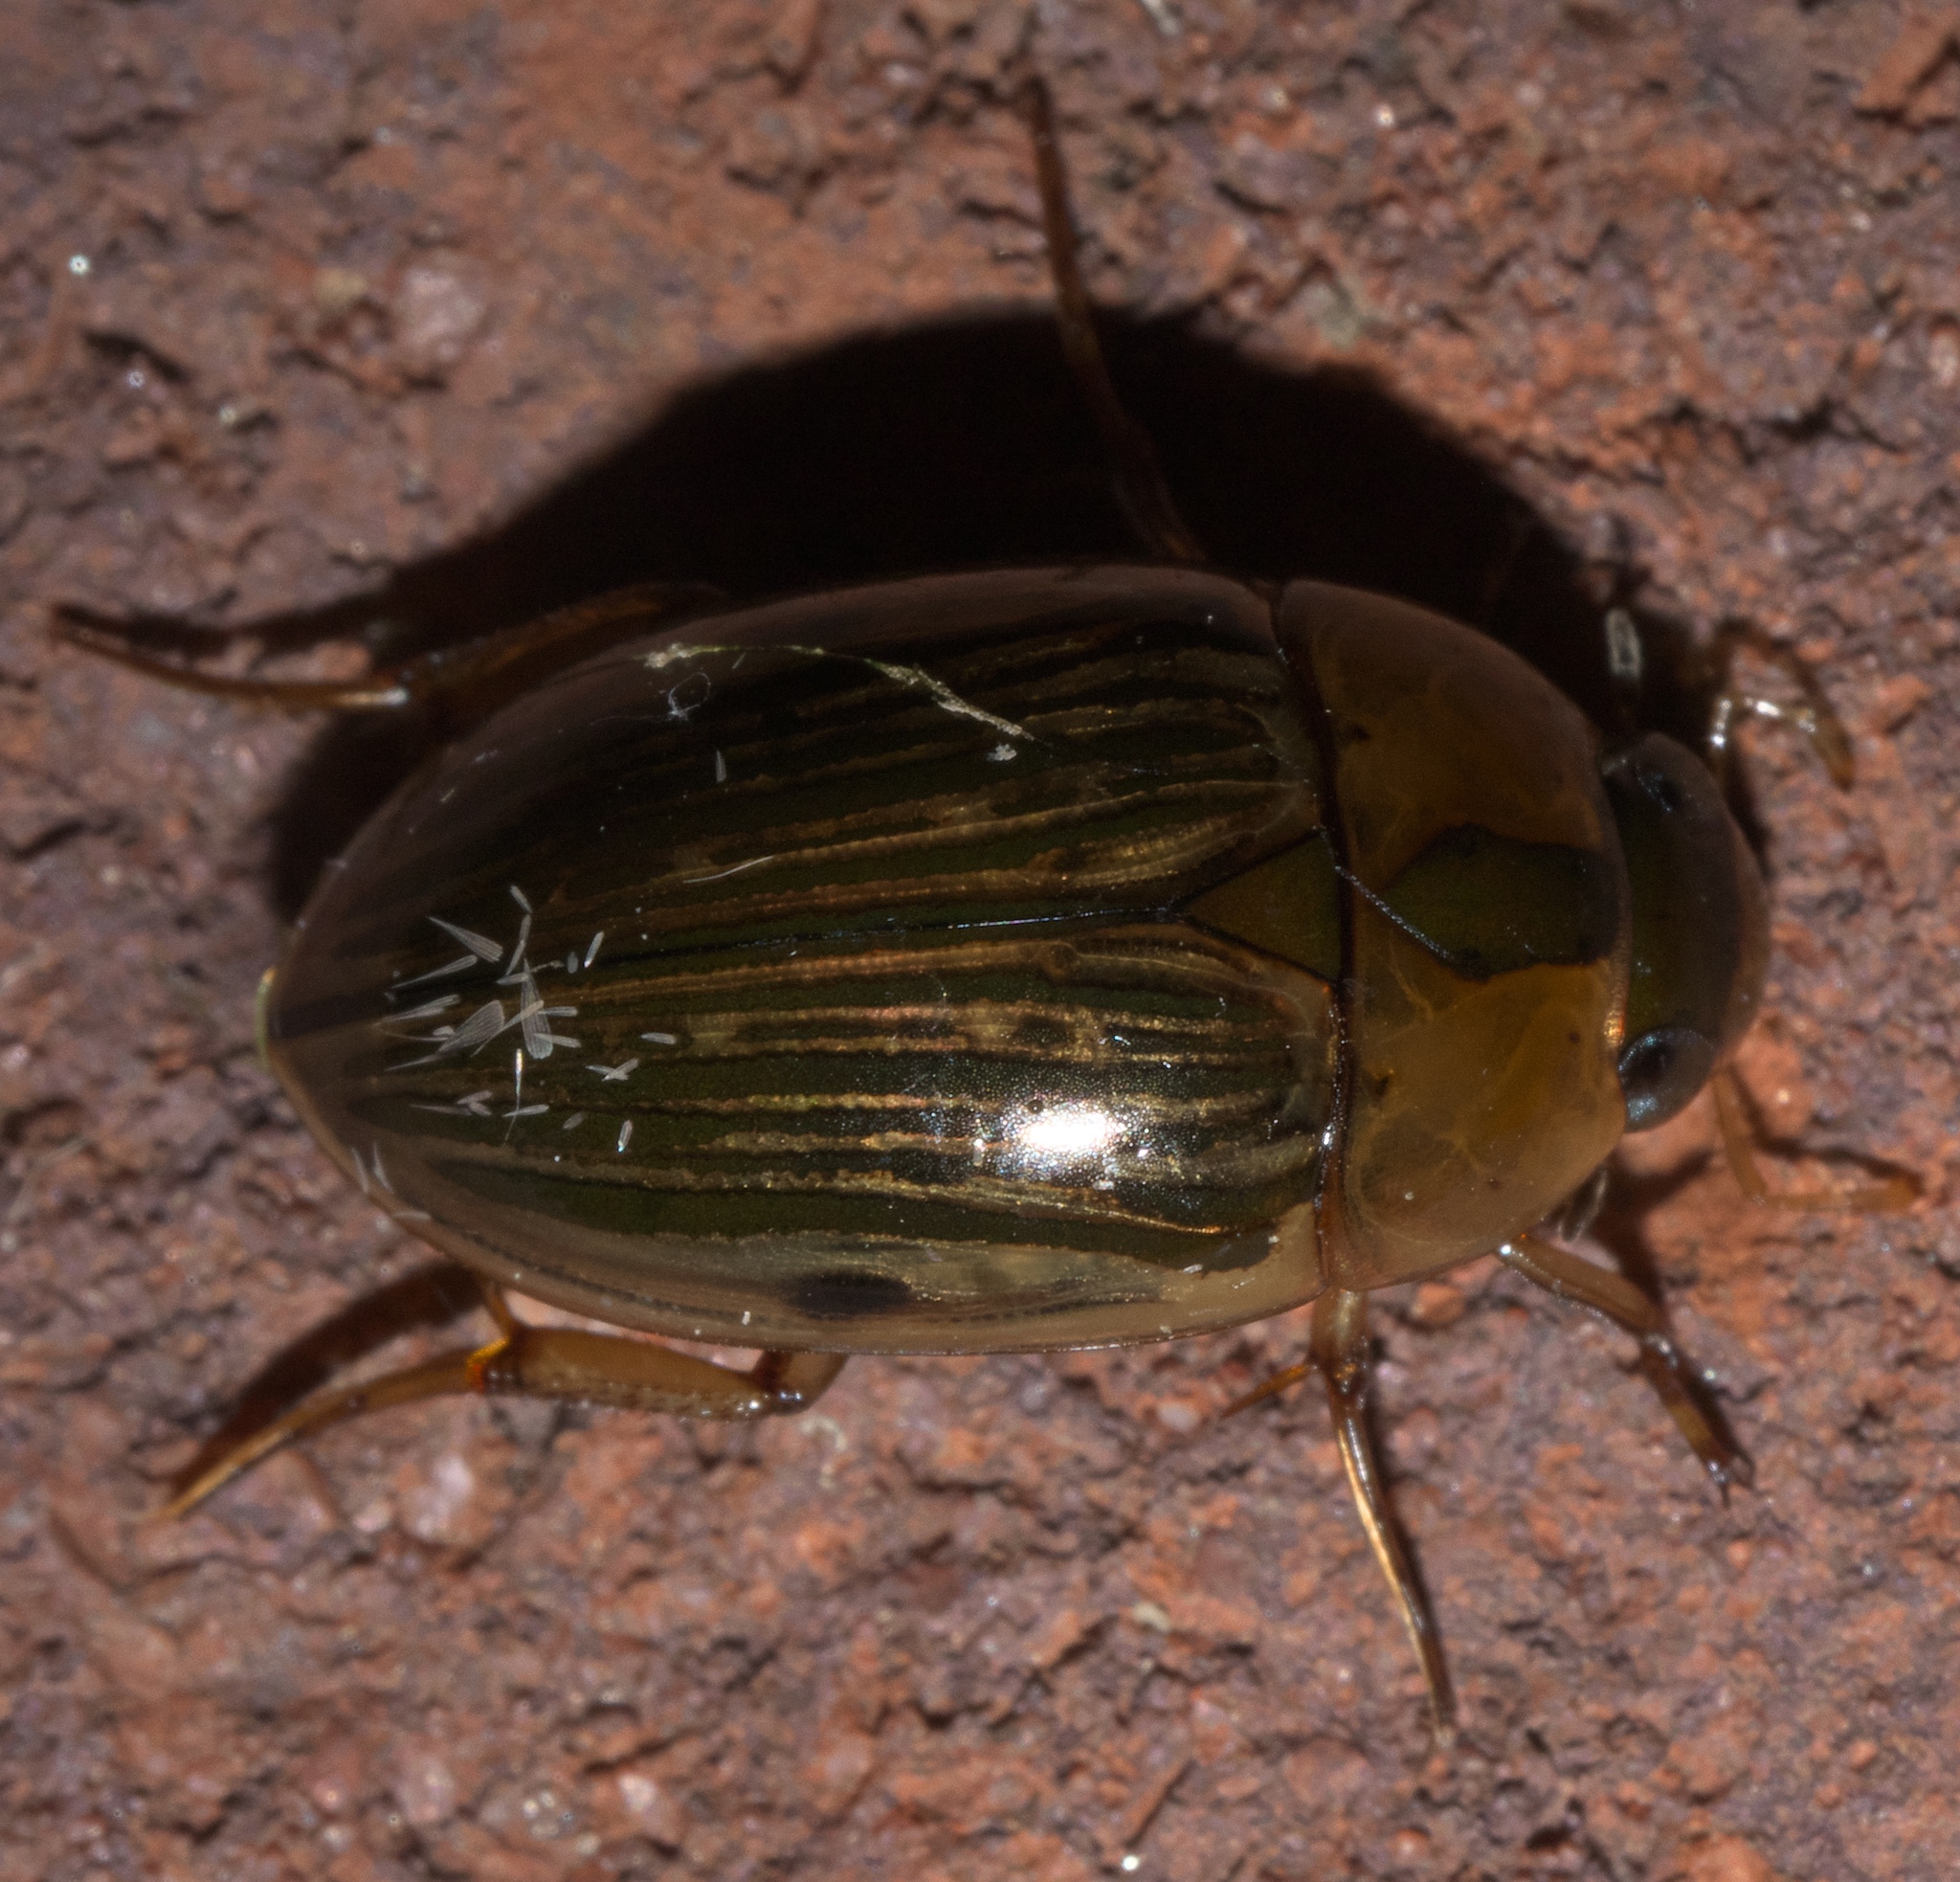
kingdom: Animalia
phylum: Arthropoda
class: Insecta
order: Coleoptera
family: Hydrophilidae
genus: Tropisternus
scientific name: Tropisternus collaris
